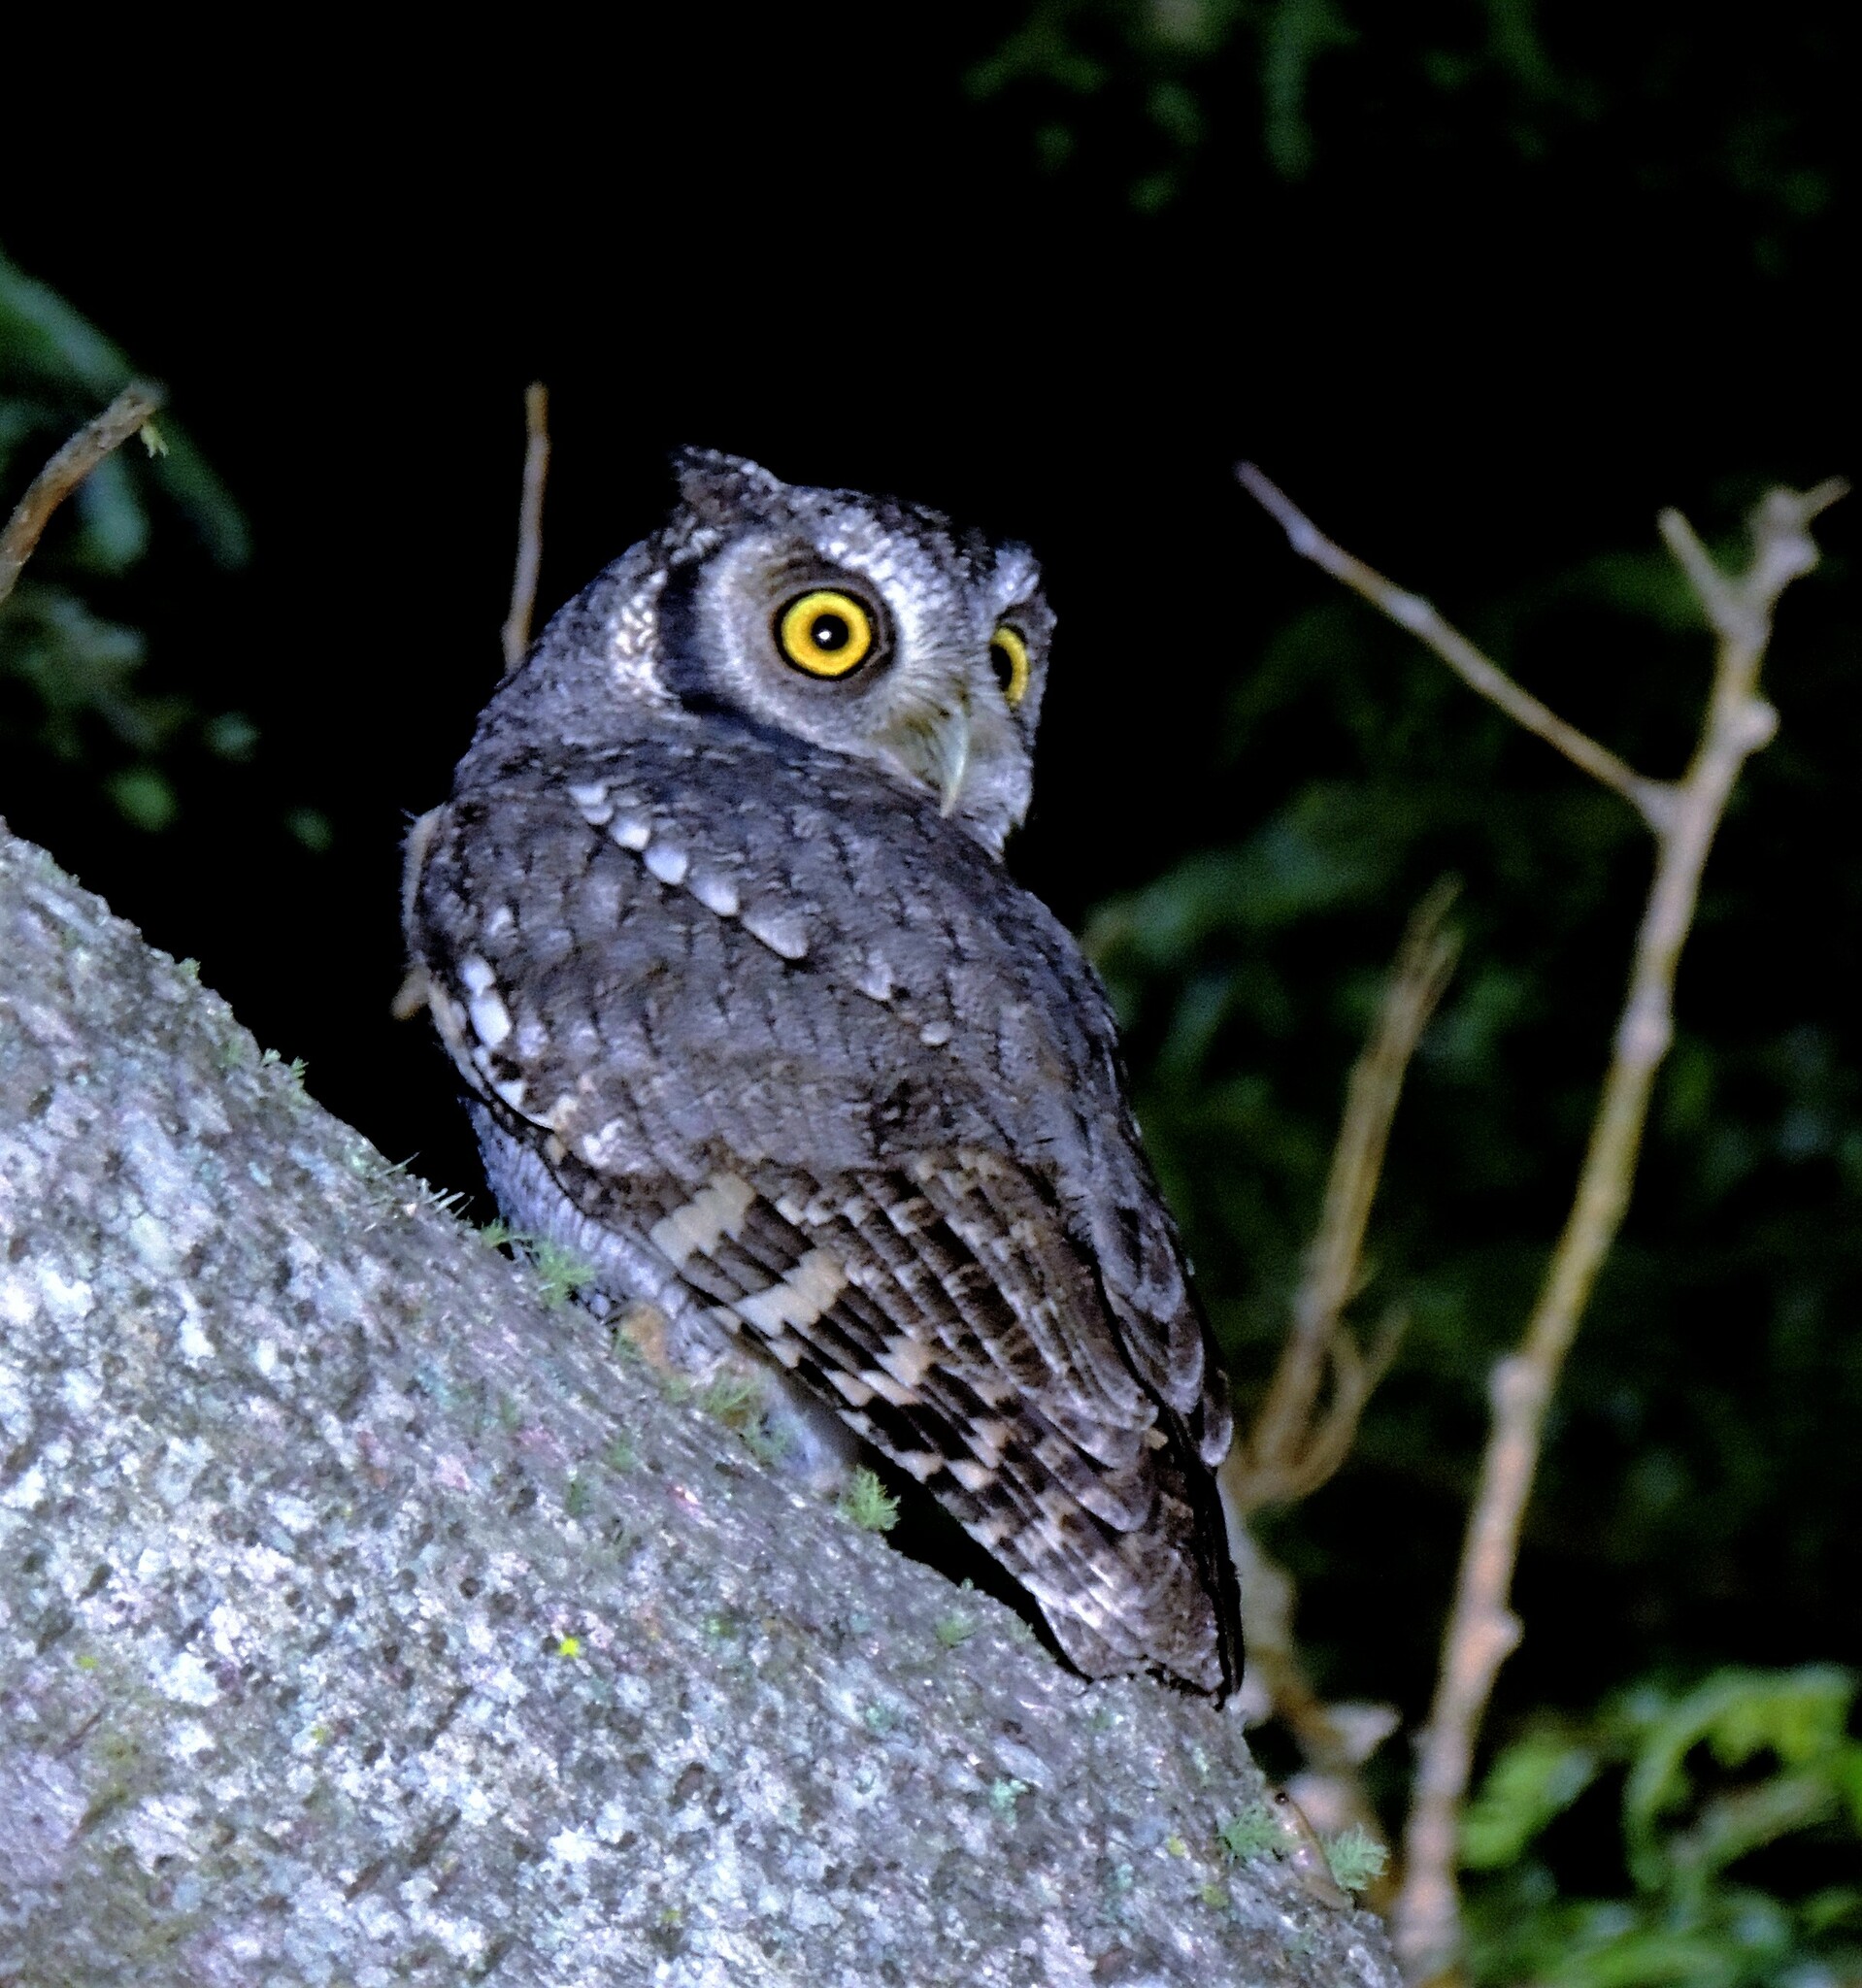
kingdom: Animalia
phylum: Chordata
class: Aves
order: Strigiformes
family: Strigidae
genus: Megascops
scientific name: Megascops choliba
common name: Tropical screech-owl
